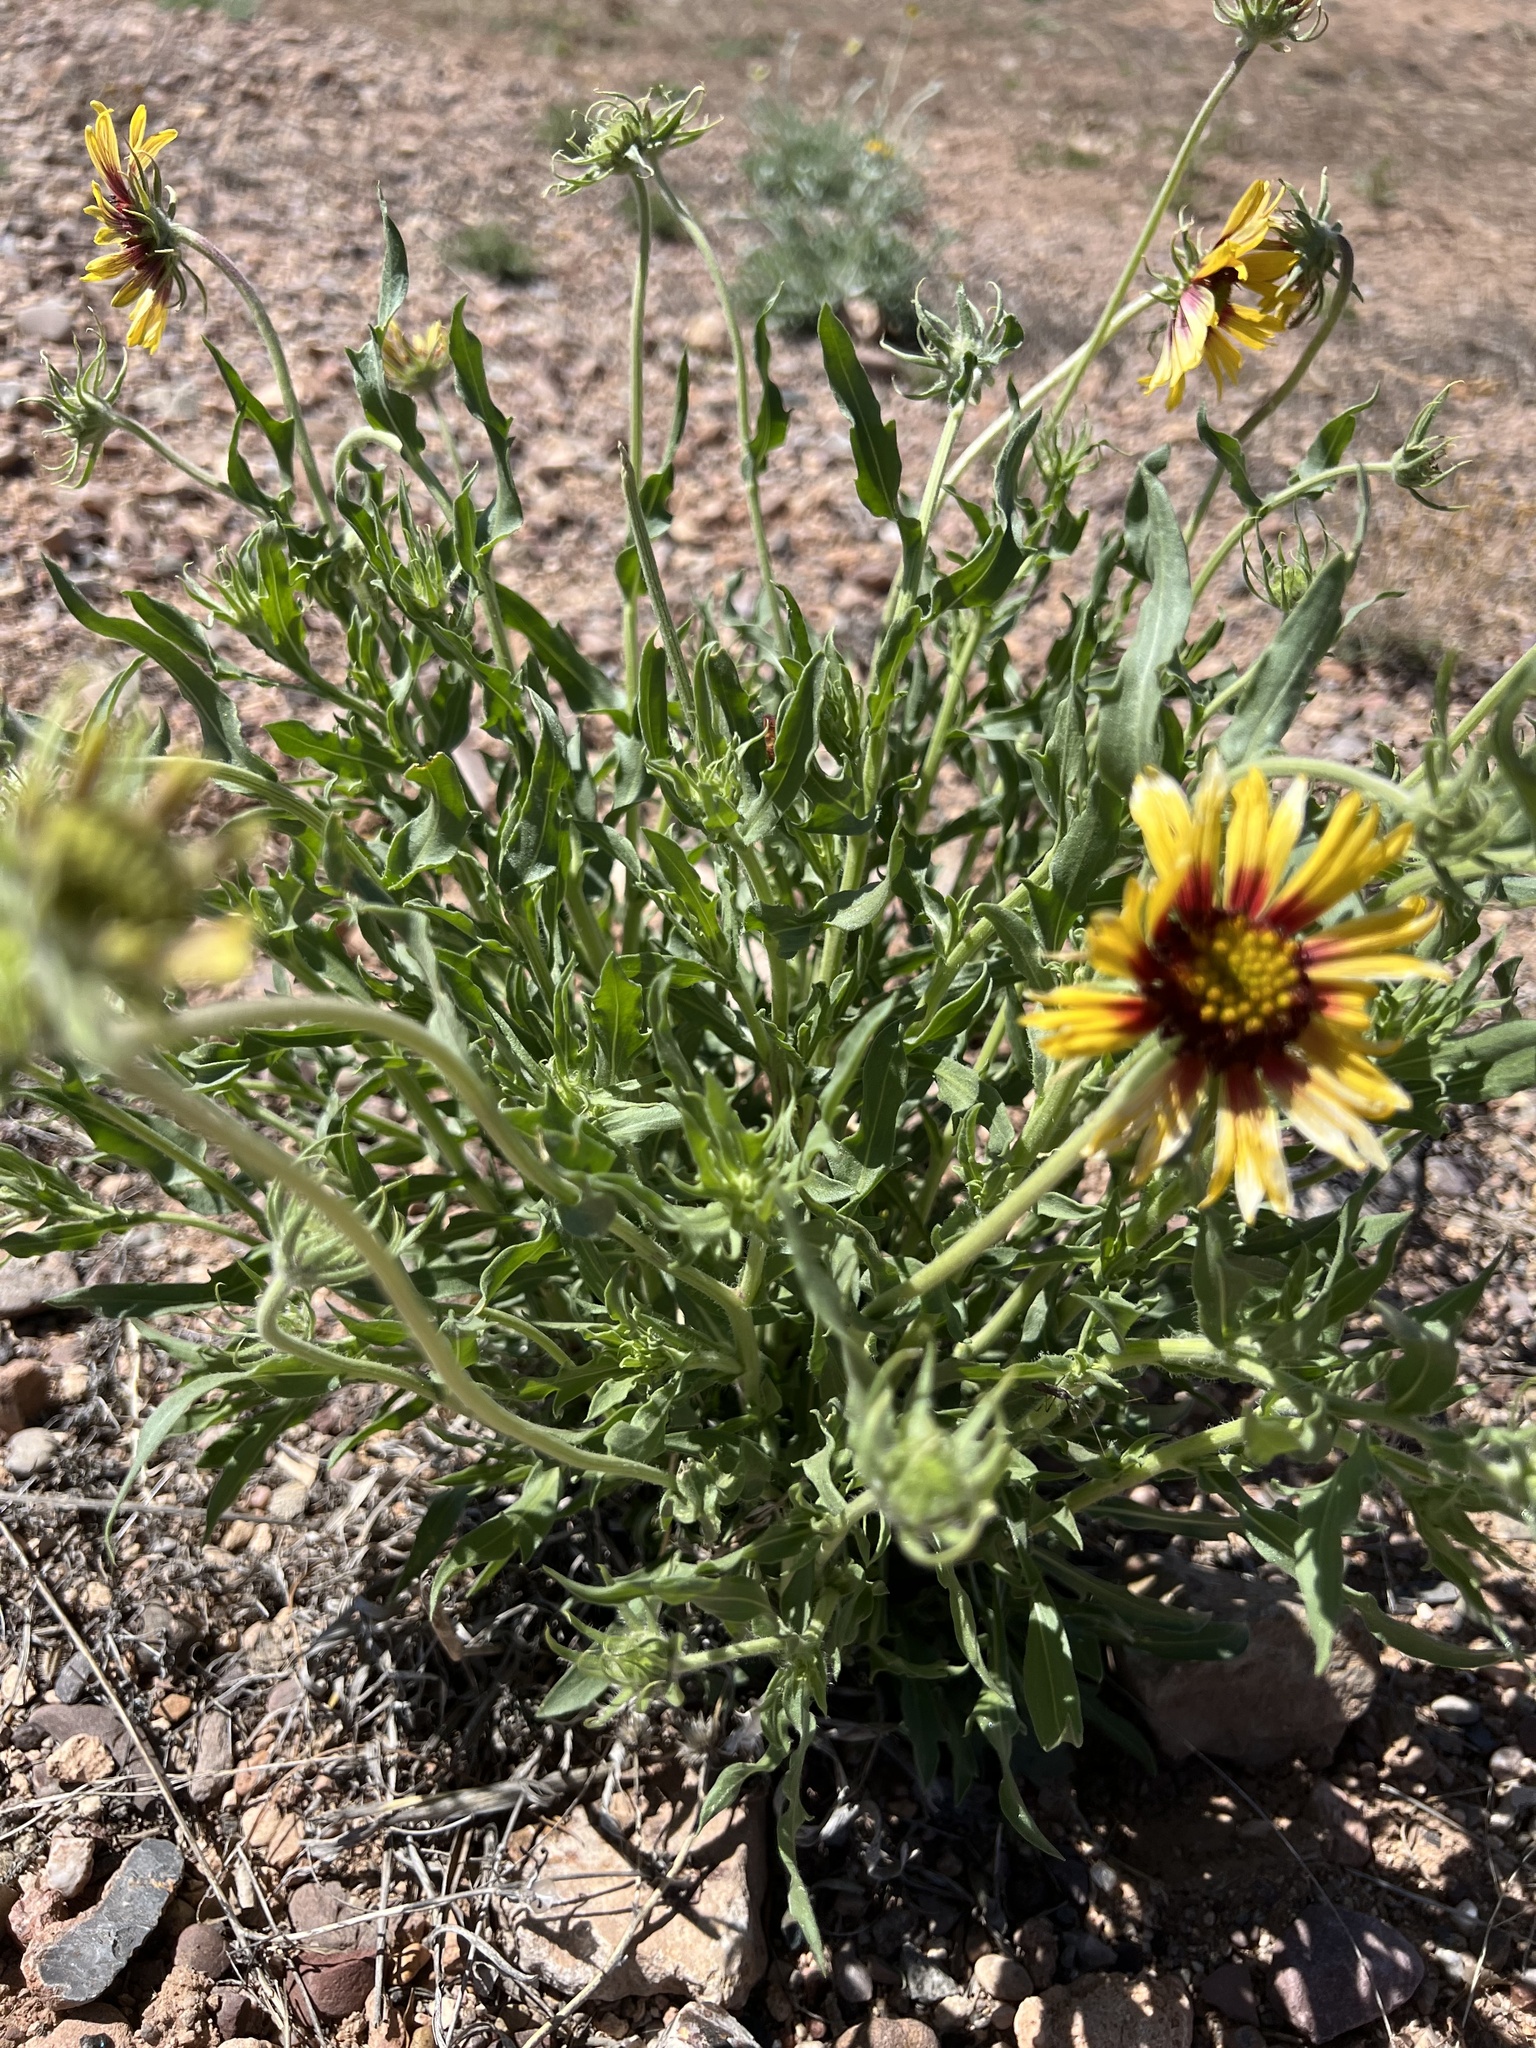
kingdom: Plantae
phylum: Tracheophyta
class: Magnoliopsida
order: Asterales
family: Asteraceae
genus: Gaillardia
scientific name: Gaillardia pinnatifida
